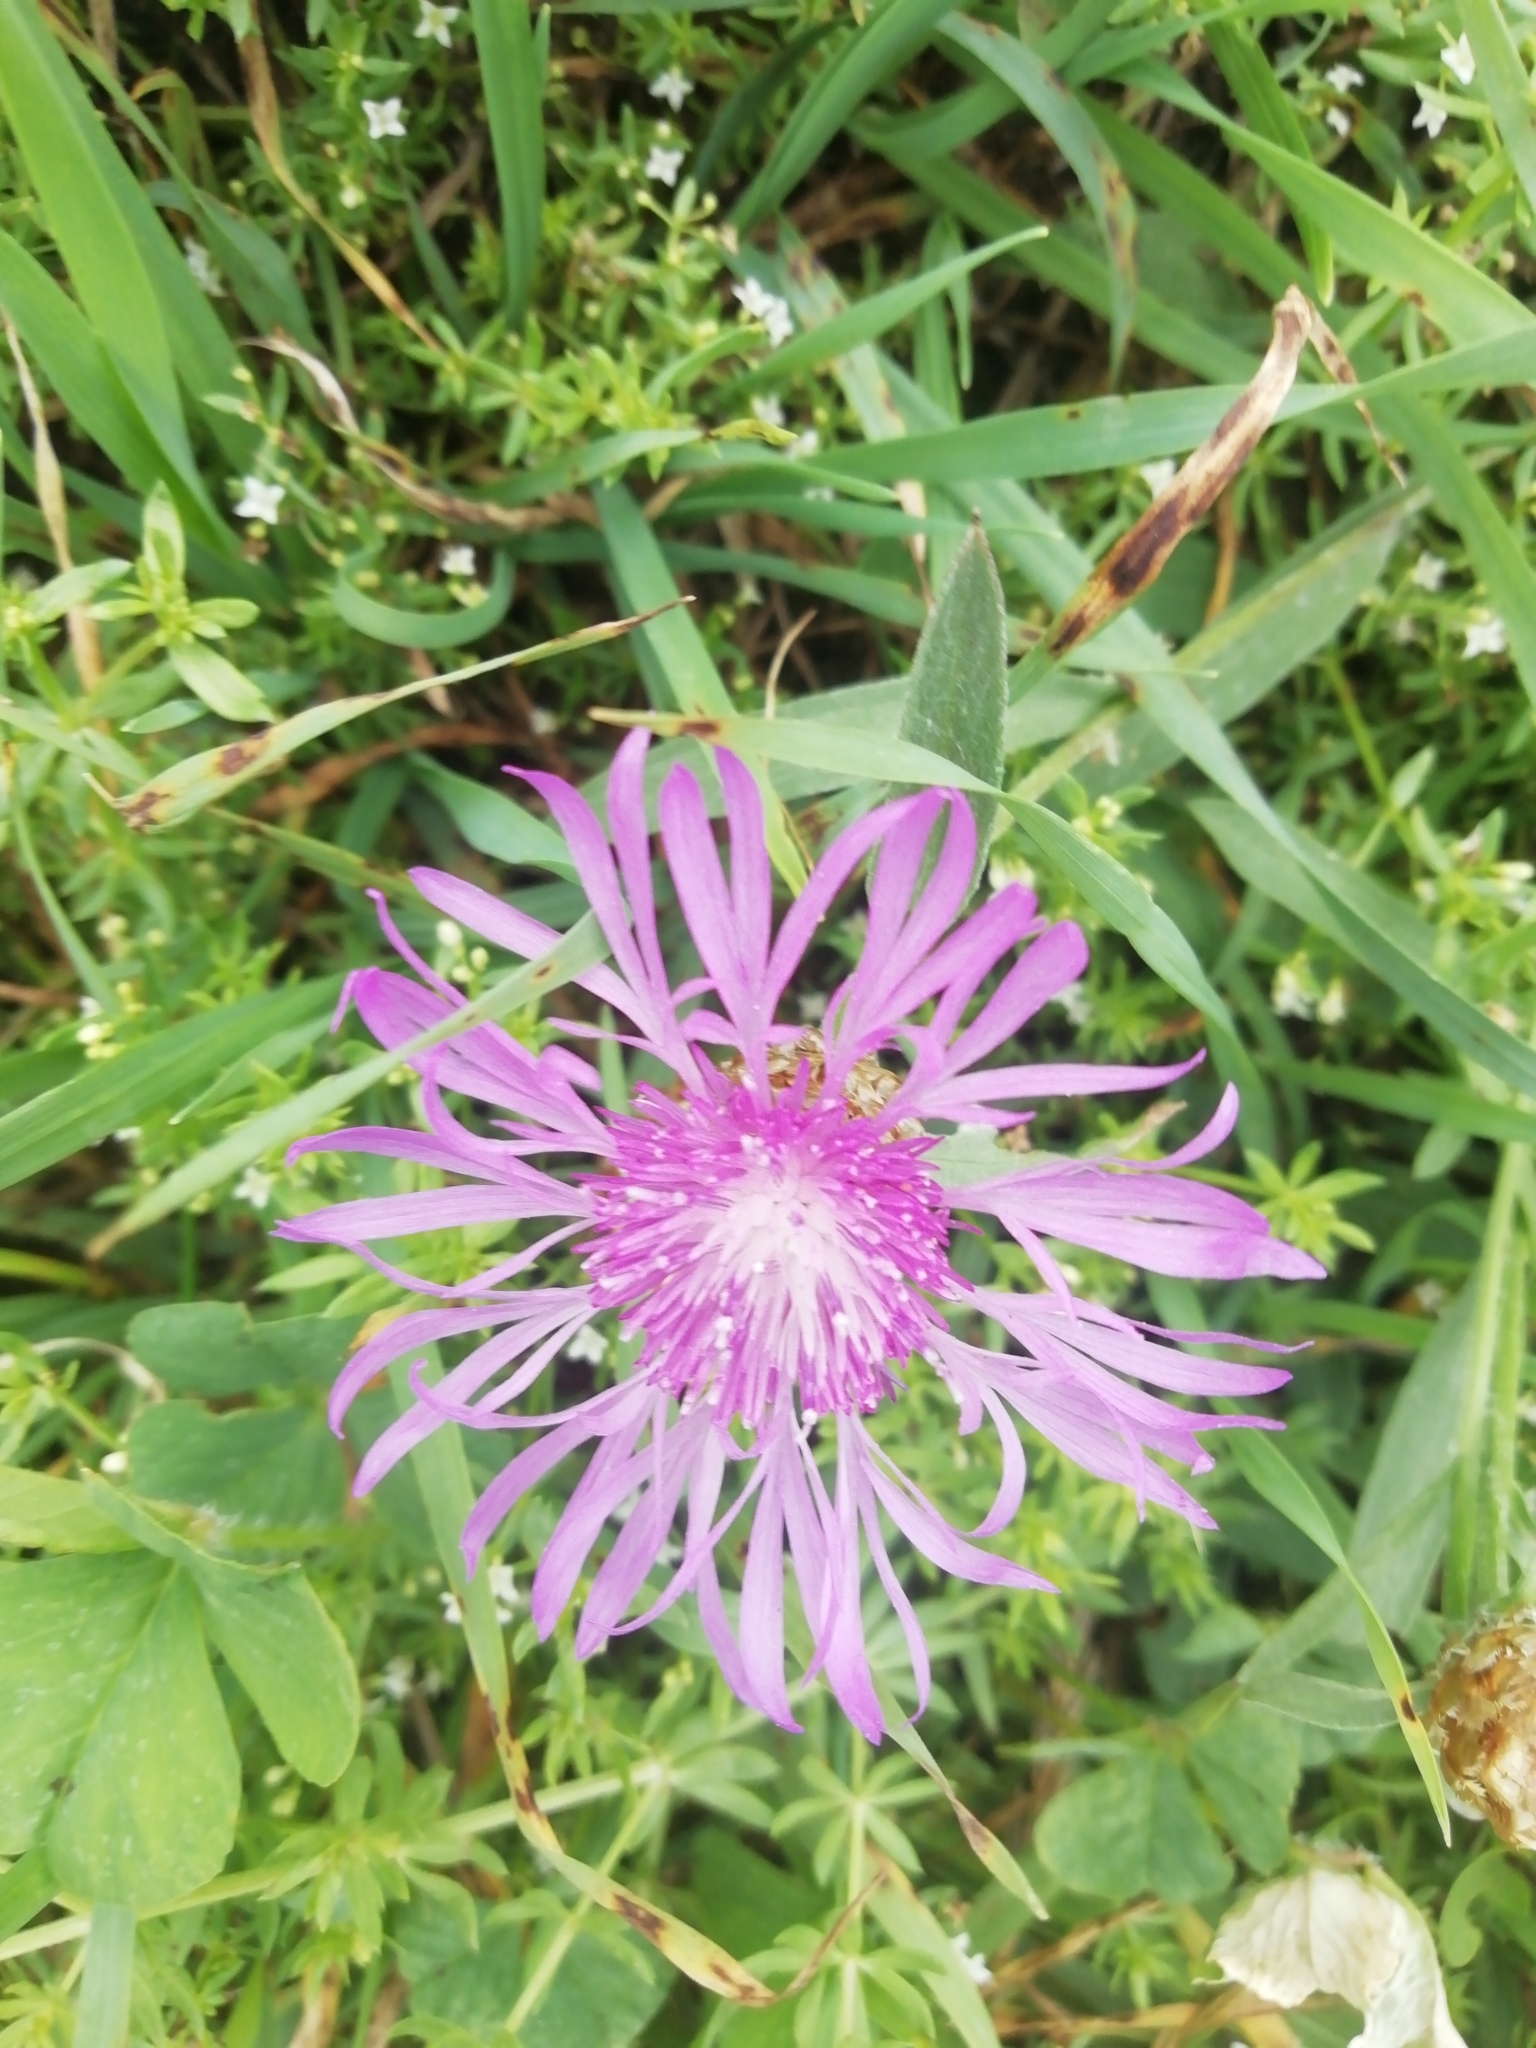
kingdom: Plantae
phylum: Tracheophyta
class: Magnoliopsida
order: Asterales
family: Asteraceae
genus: Centaurea
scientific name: Centaurea jacea
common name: Brown knapweed
